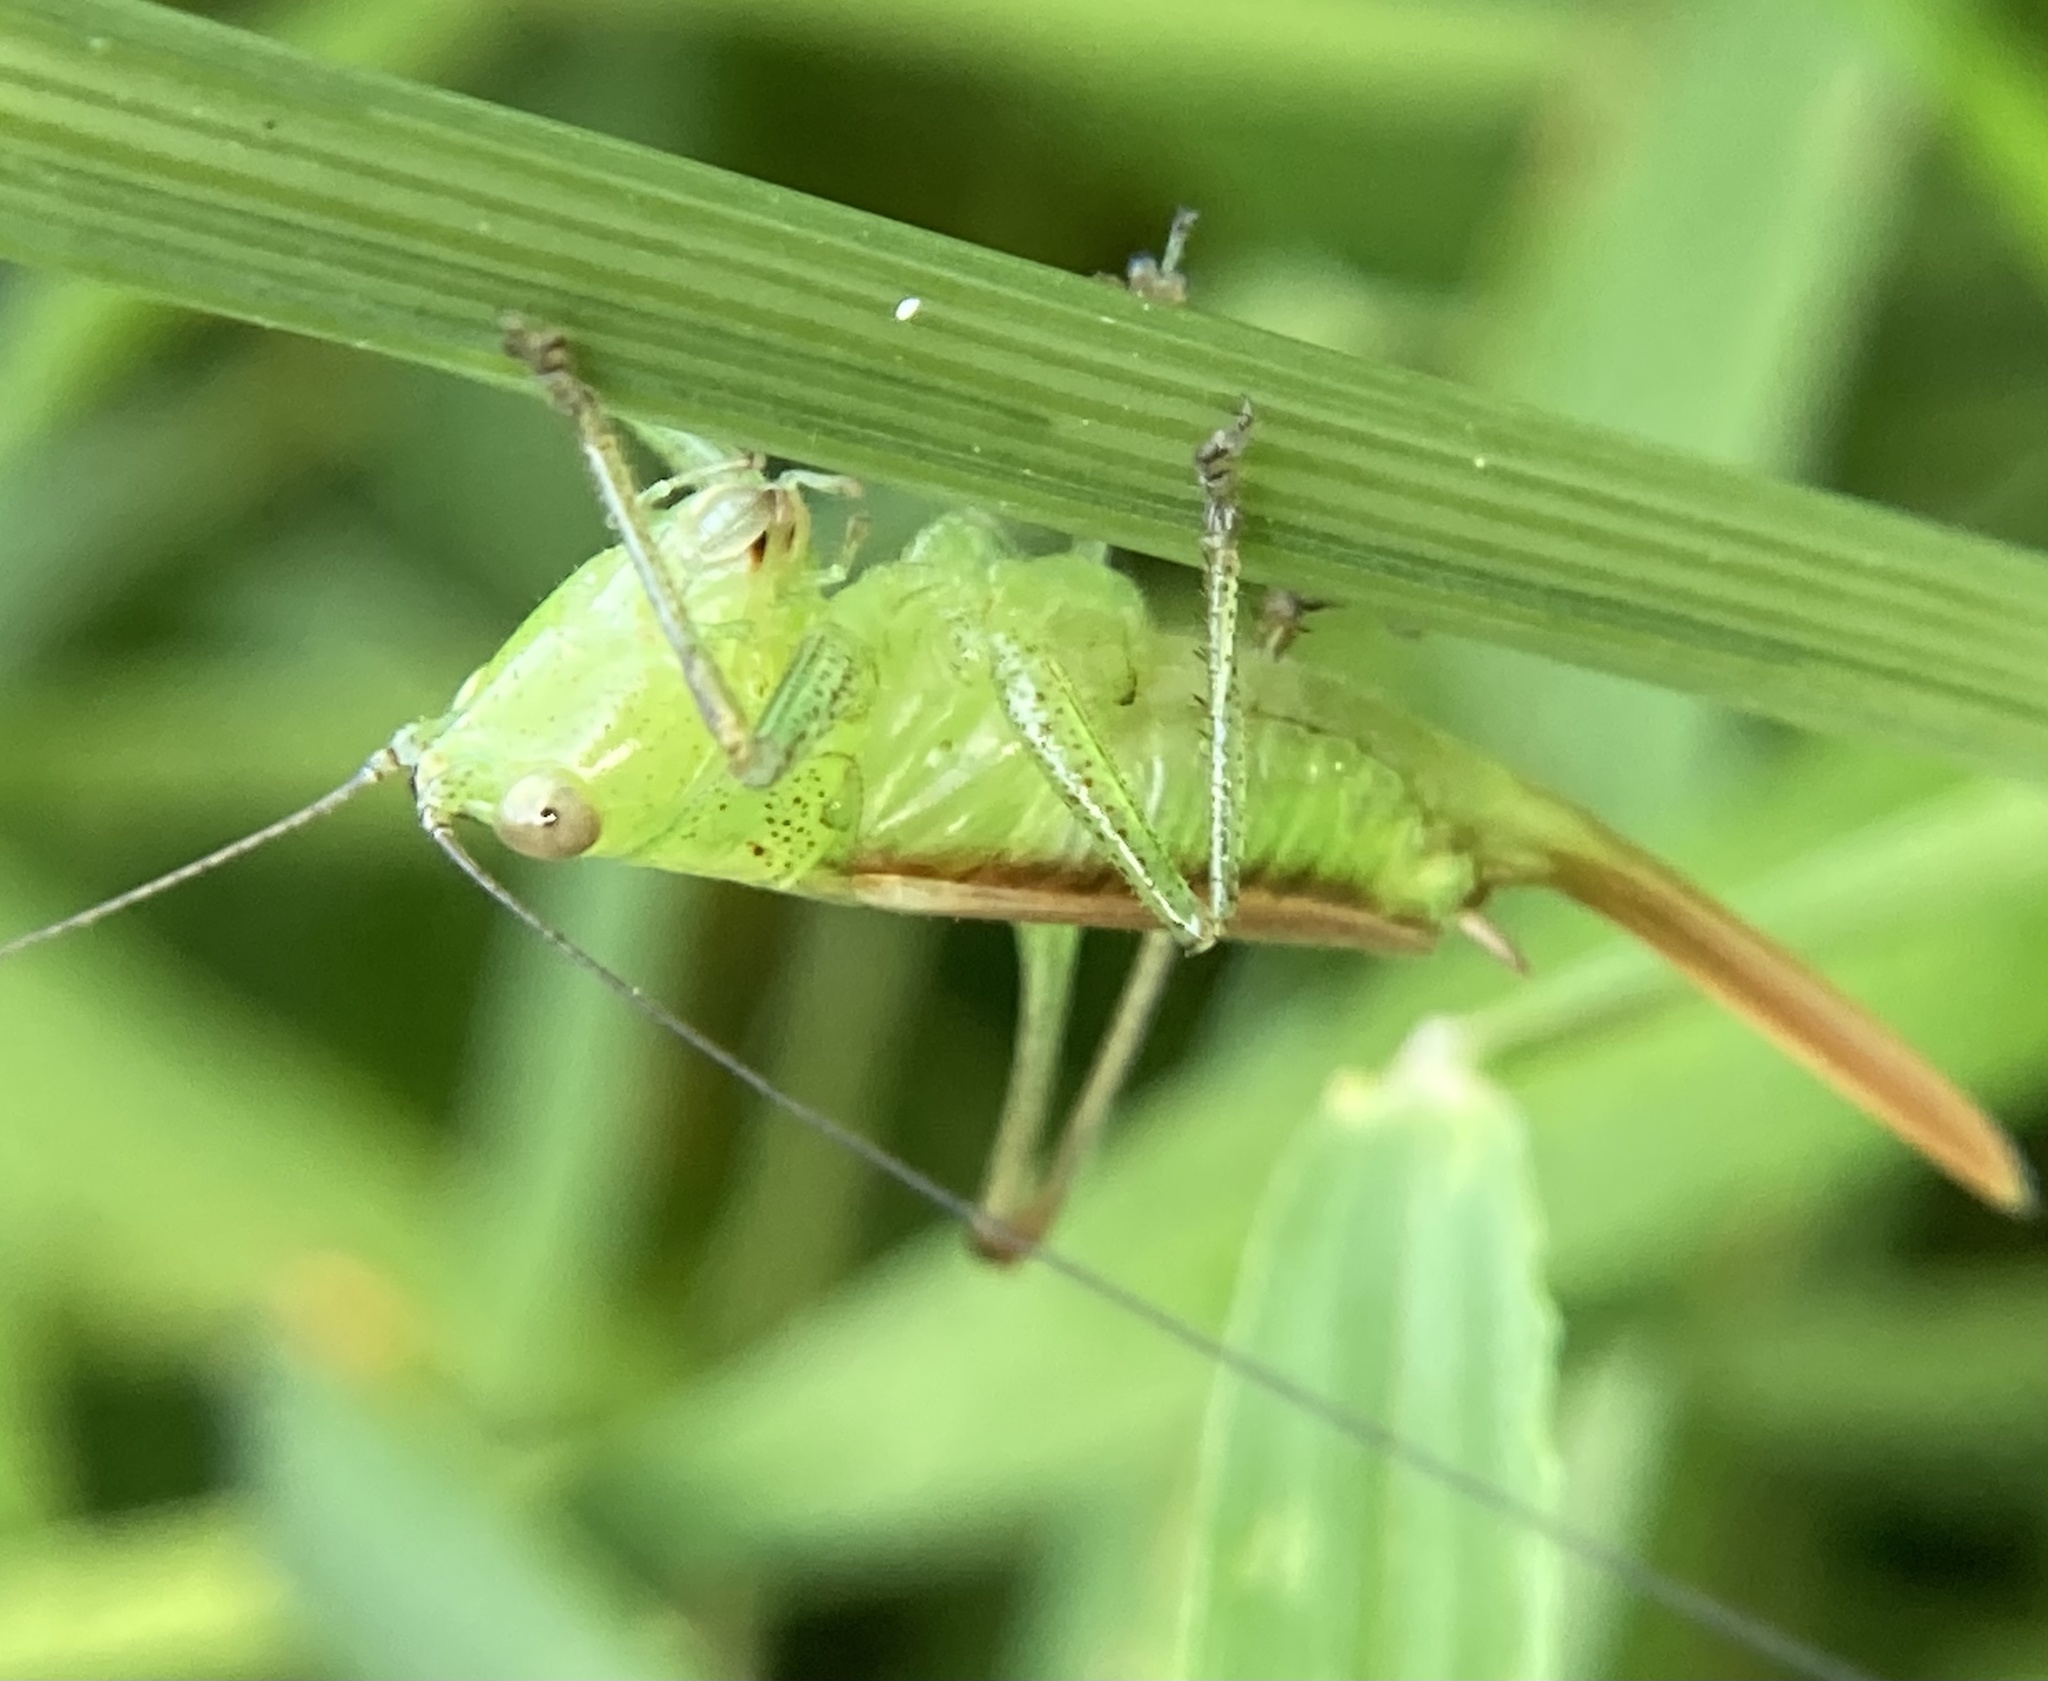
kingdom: Animalia
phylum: Arthropoda
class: Insecta
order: Orthoptera
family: Tettigoniidae
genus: Conocephalus
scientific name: Conocephalus brevipennis
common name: Short-winged meadow katydid
